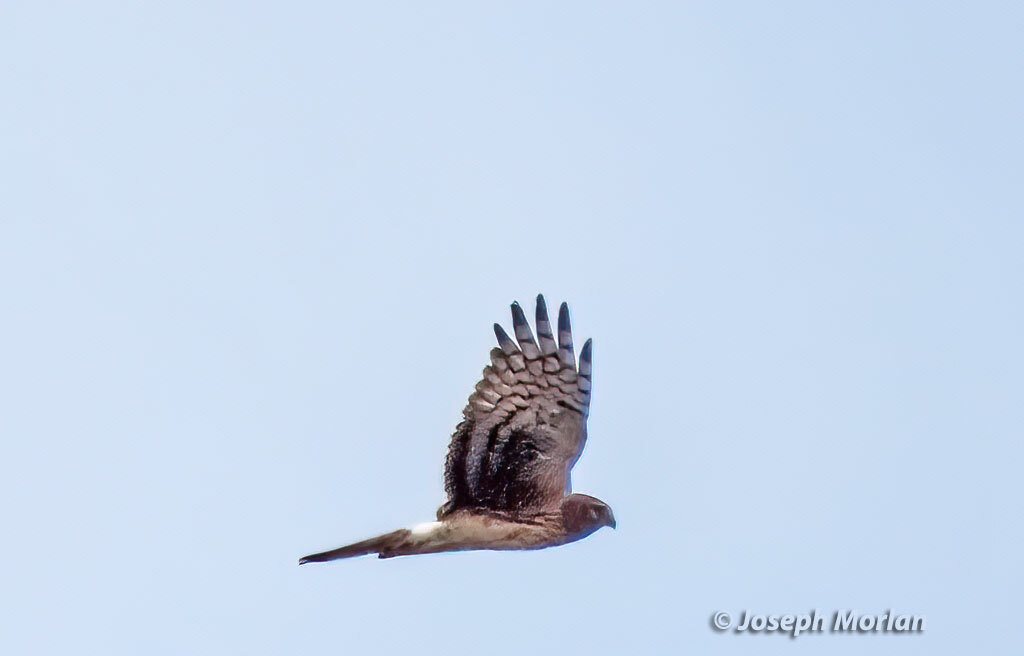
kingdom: Animalia
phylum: Chordata
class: Aves
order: Accipitriformes
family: Accipitridae
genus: Circus
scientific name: Circus cyaneus
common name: Hen harrier
